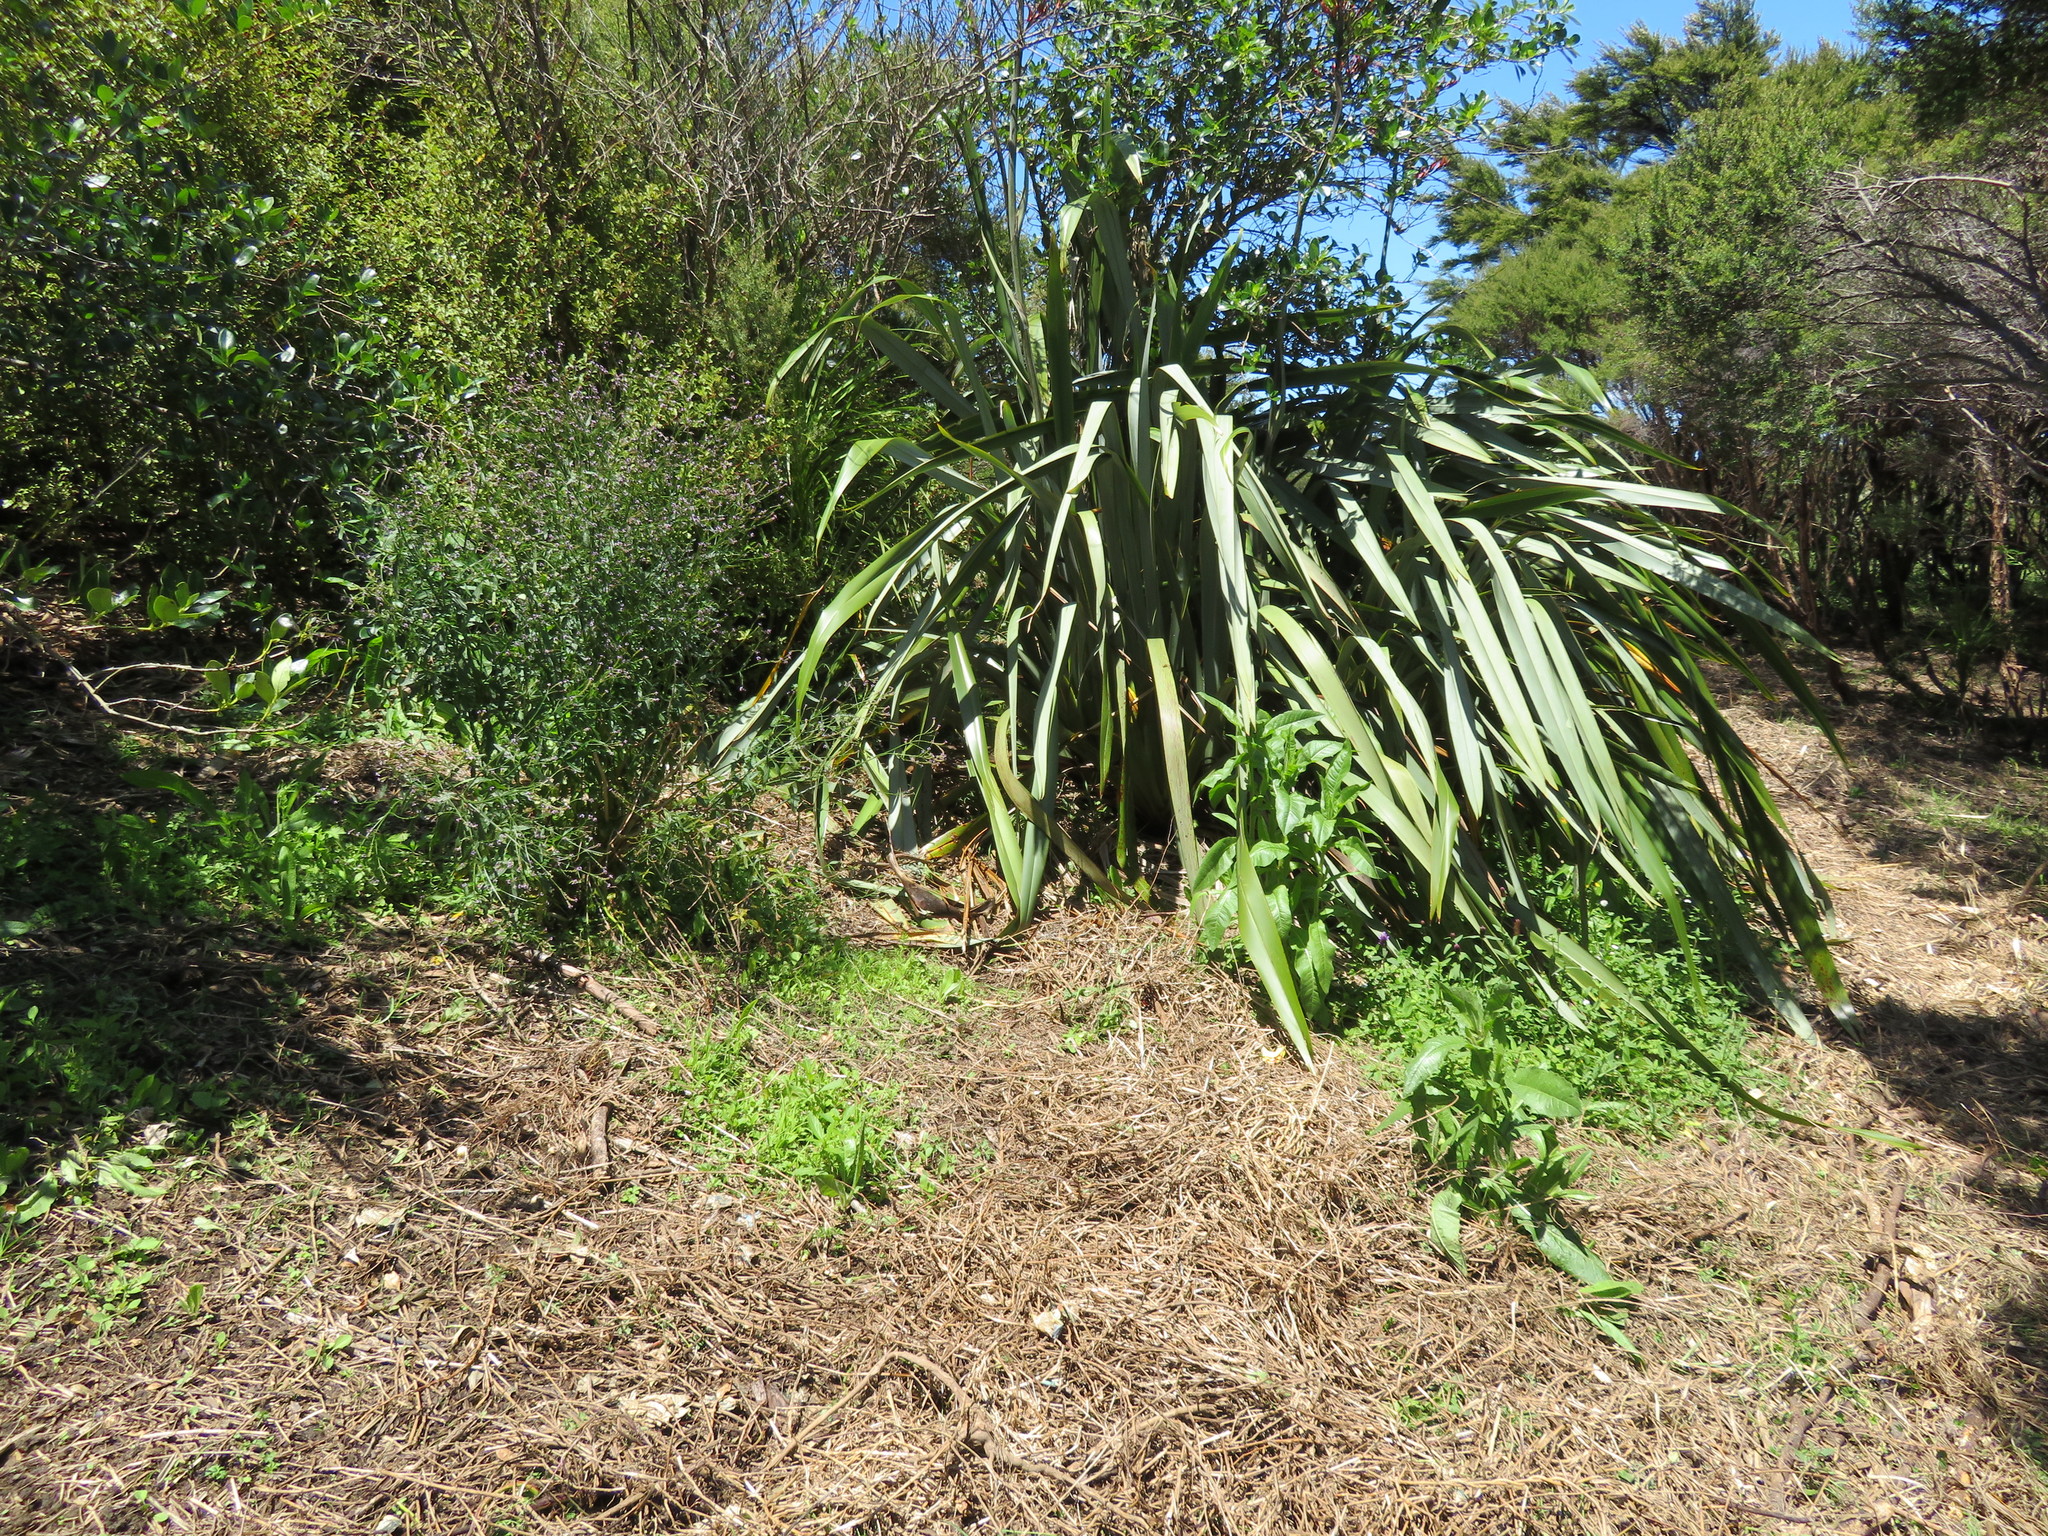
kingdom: Plantae
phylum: Tracheophyta
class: Magnoliopsida
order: Asterales
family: Asteraceae
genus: Helminthotheca
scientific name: Helminthotheca echioides
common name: Ox-tongue
